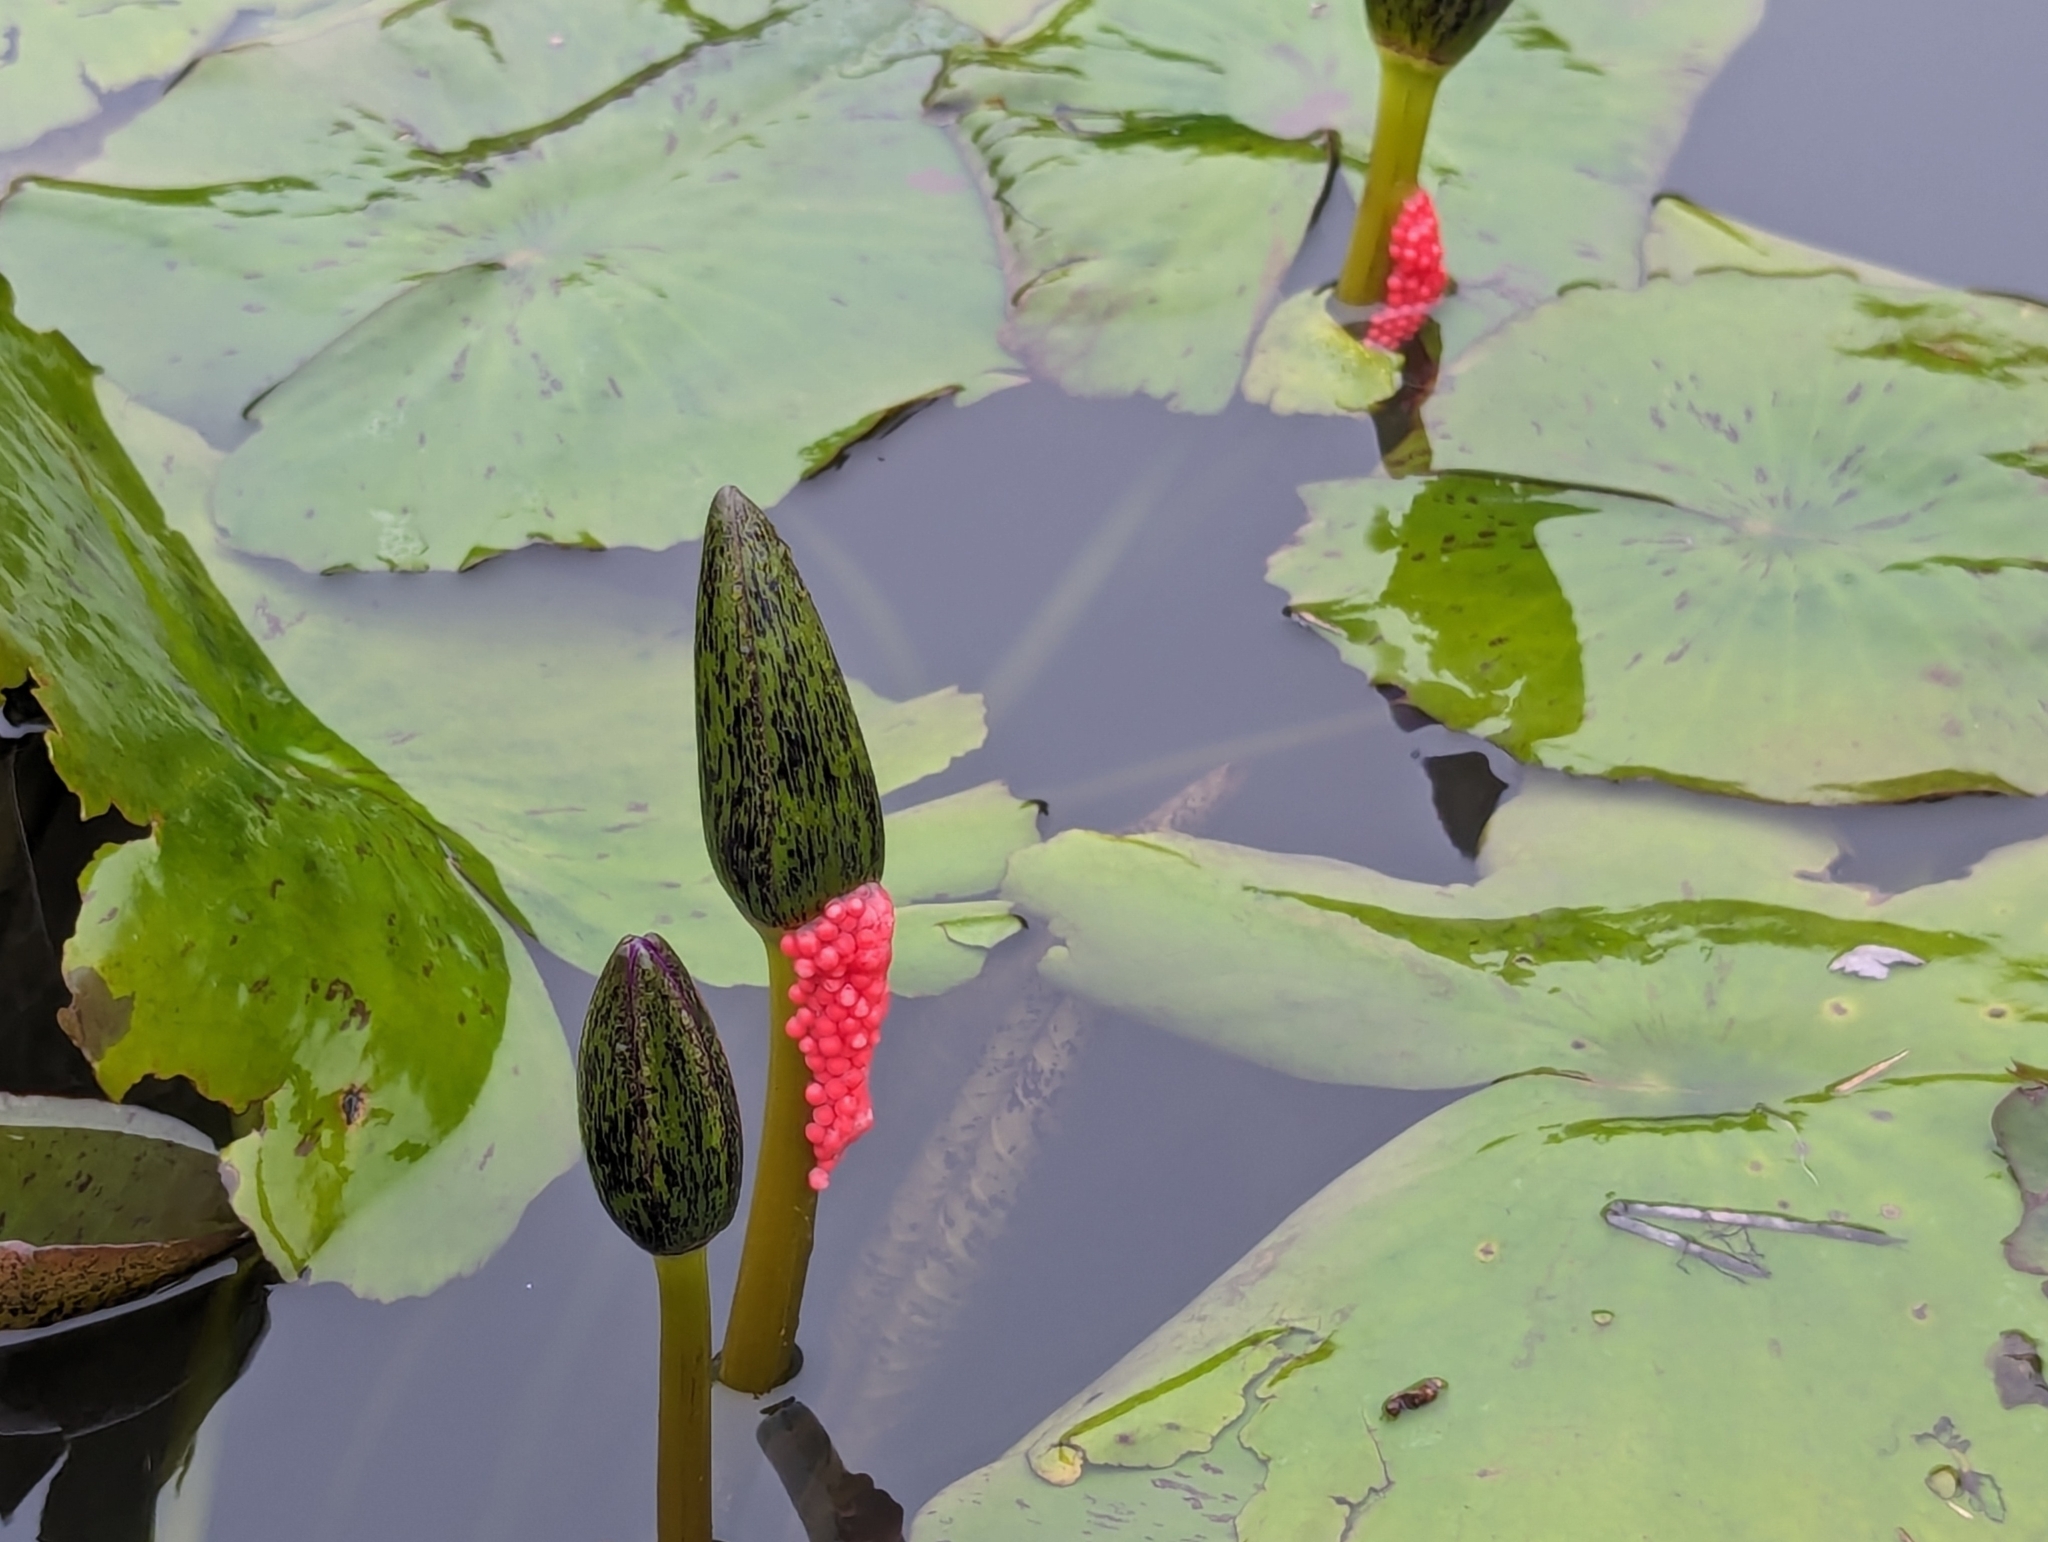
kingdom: Animalia
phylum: Mollusca
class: Gastropoda
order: Architaenioglossa
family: Ampullariidae
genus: Pomacea
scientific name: Pomacea canaliculata
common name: Channeled applesnail
